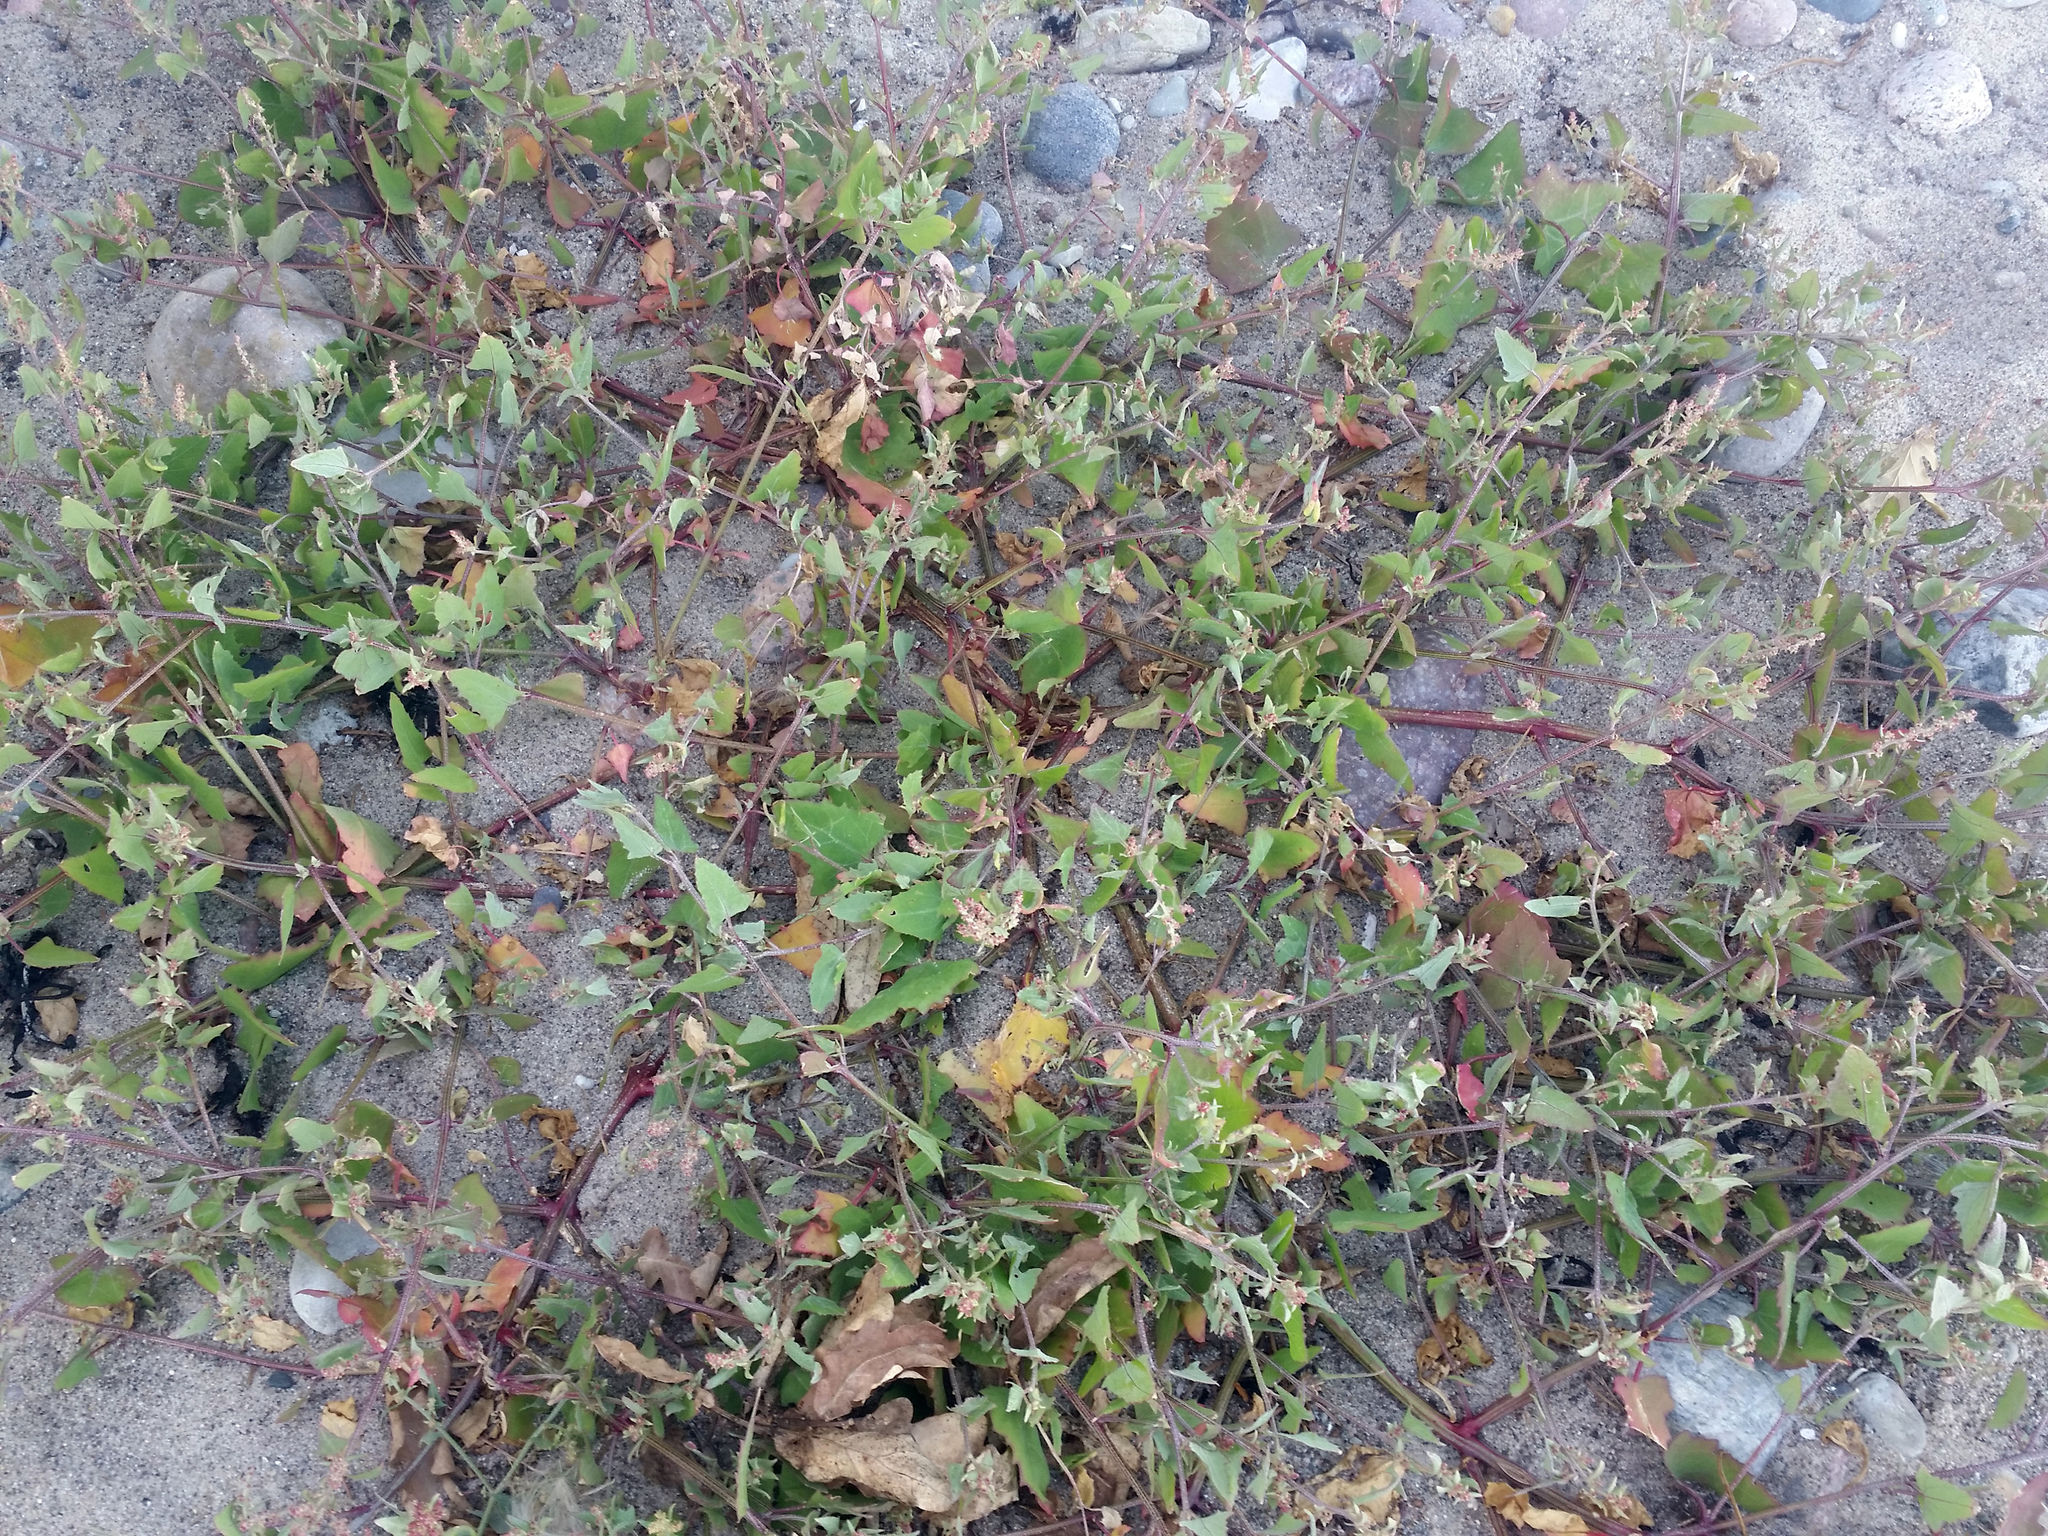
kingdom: Plantae
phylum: Tracheophyta
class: Magnoliopsida
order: Caryophyllales
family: Amaranthaceae
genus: Atriplex
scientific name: Atriplex prostrata
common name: Spear-leaved orache
